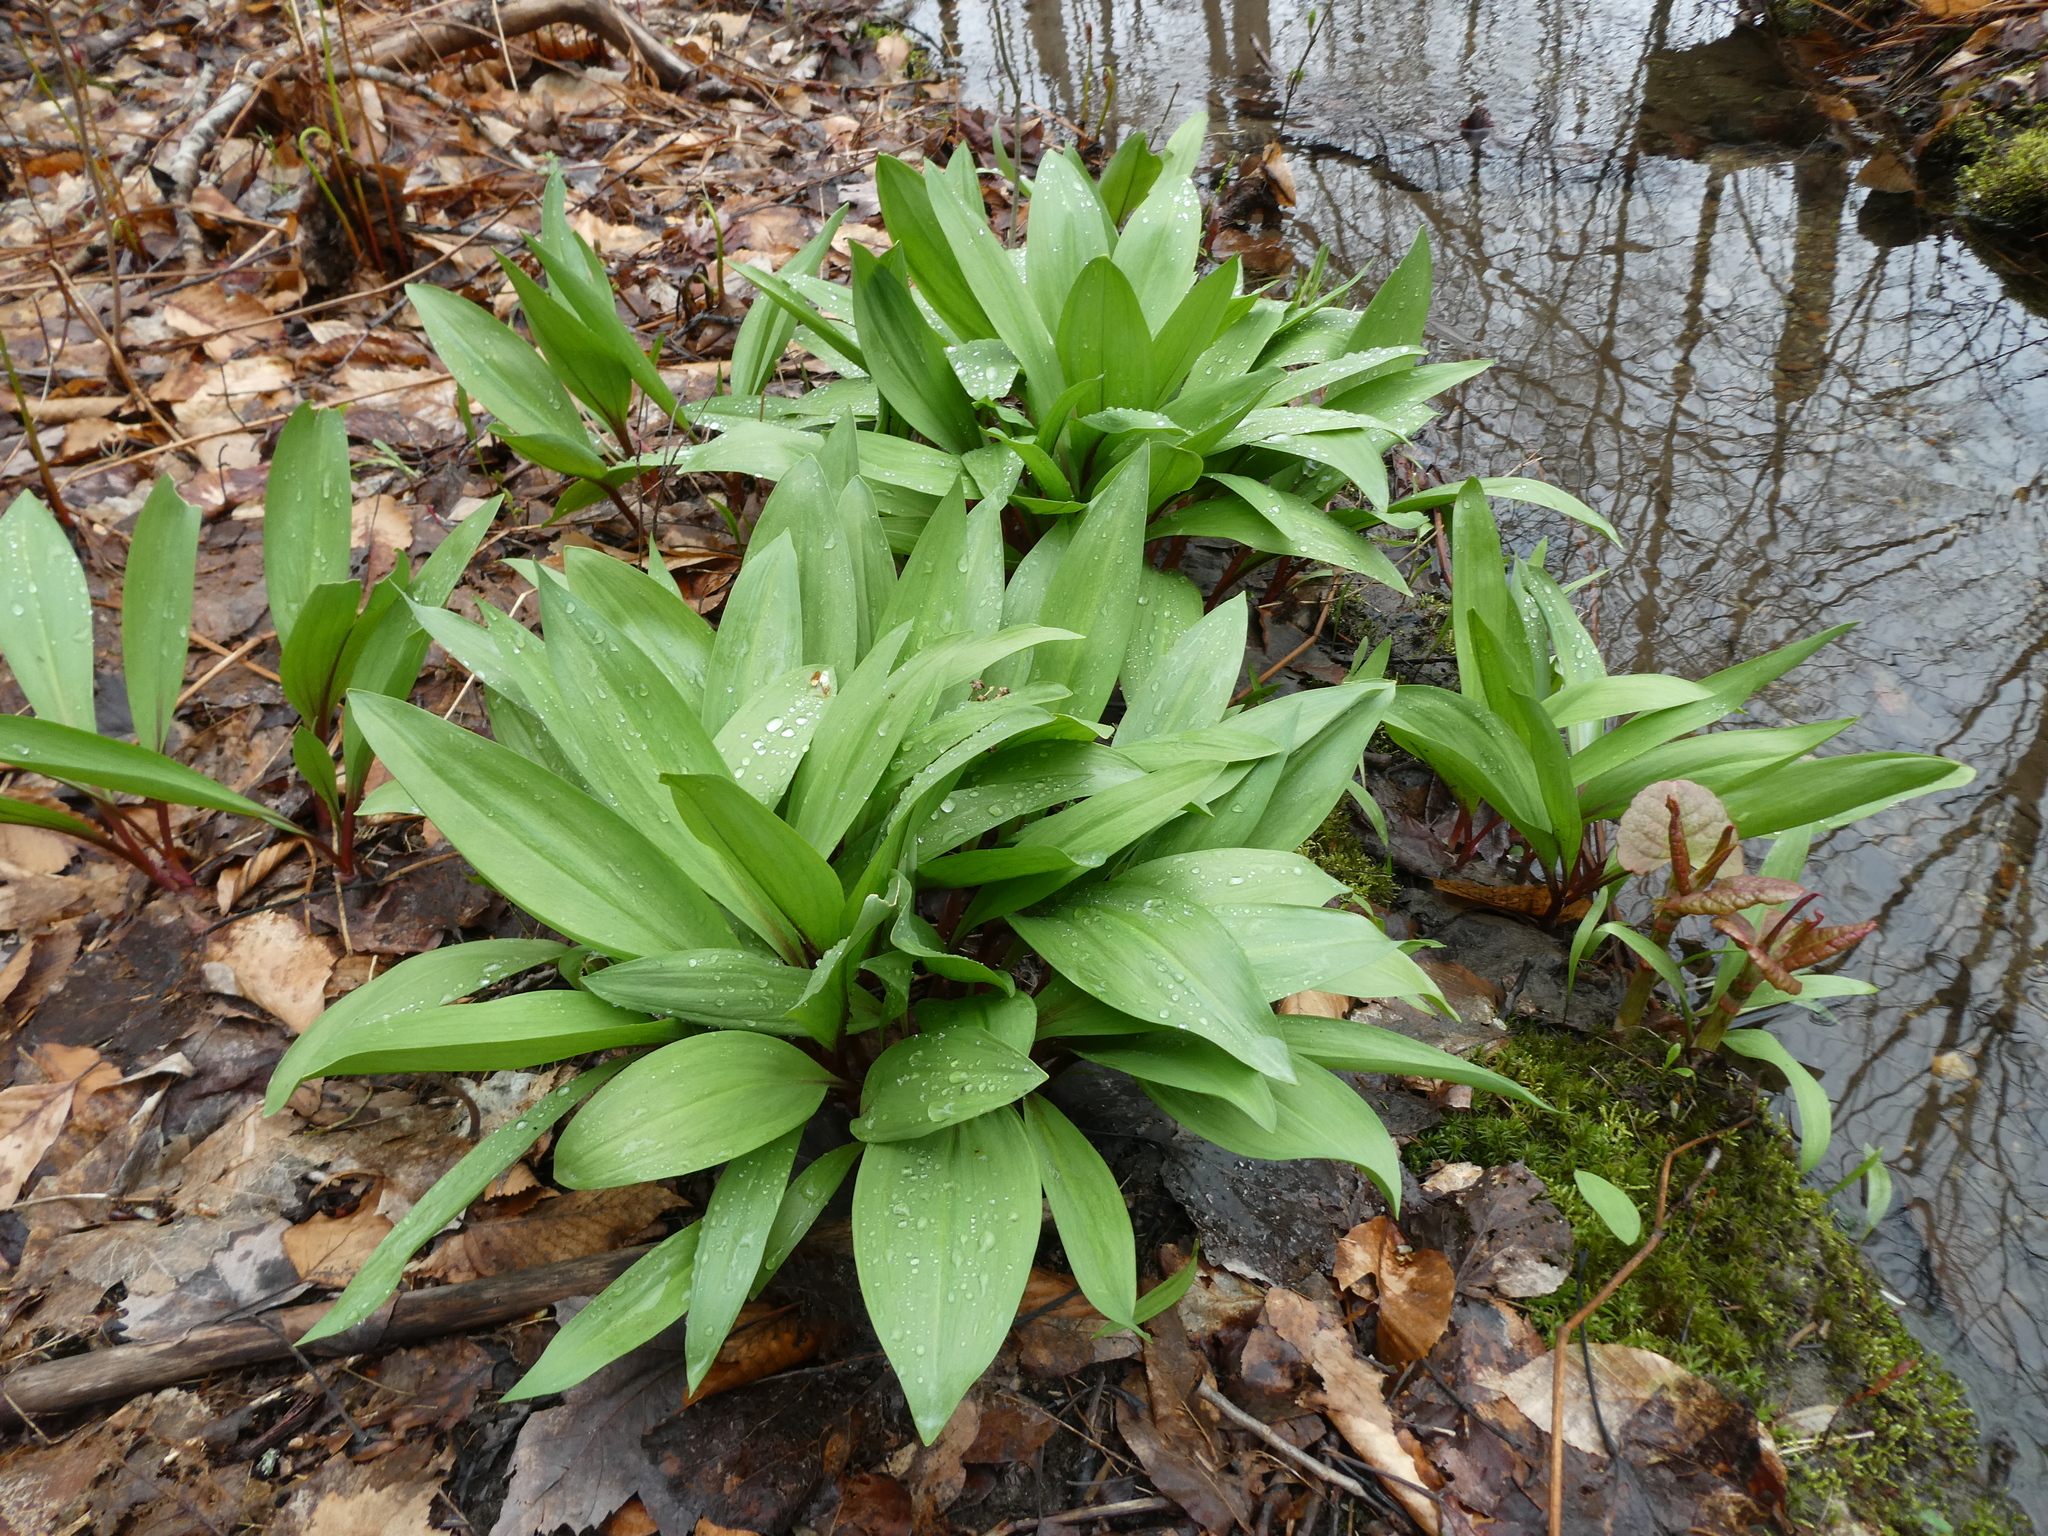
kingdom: Plantae
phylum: Tracheophyta
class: Liliopsida
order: Asparagales
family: Amaryllidaceae
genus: Allium
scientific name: Allium tricoccum
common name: Ramp
